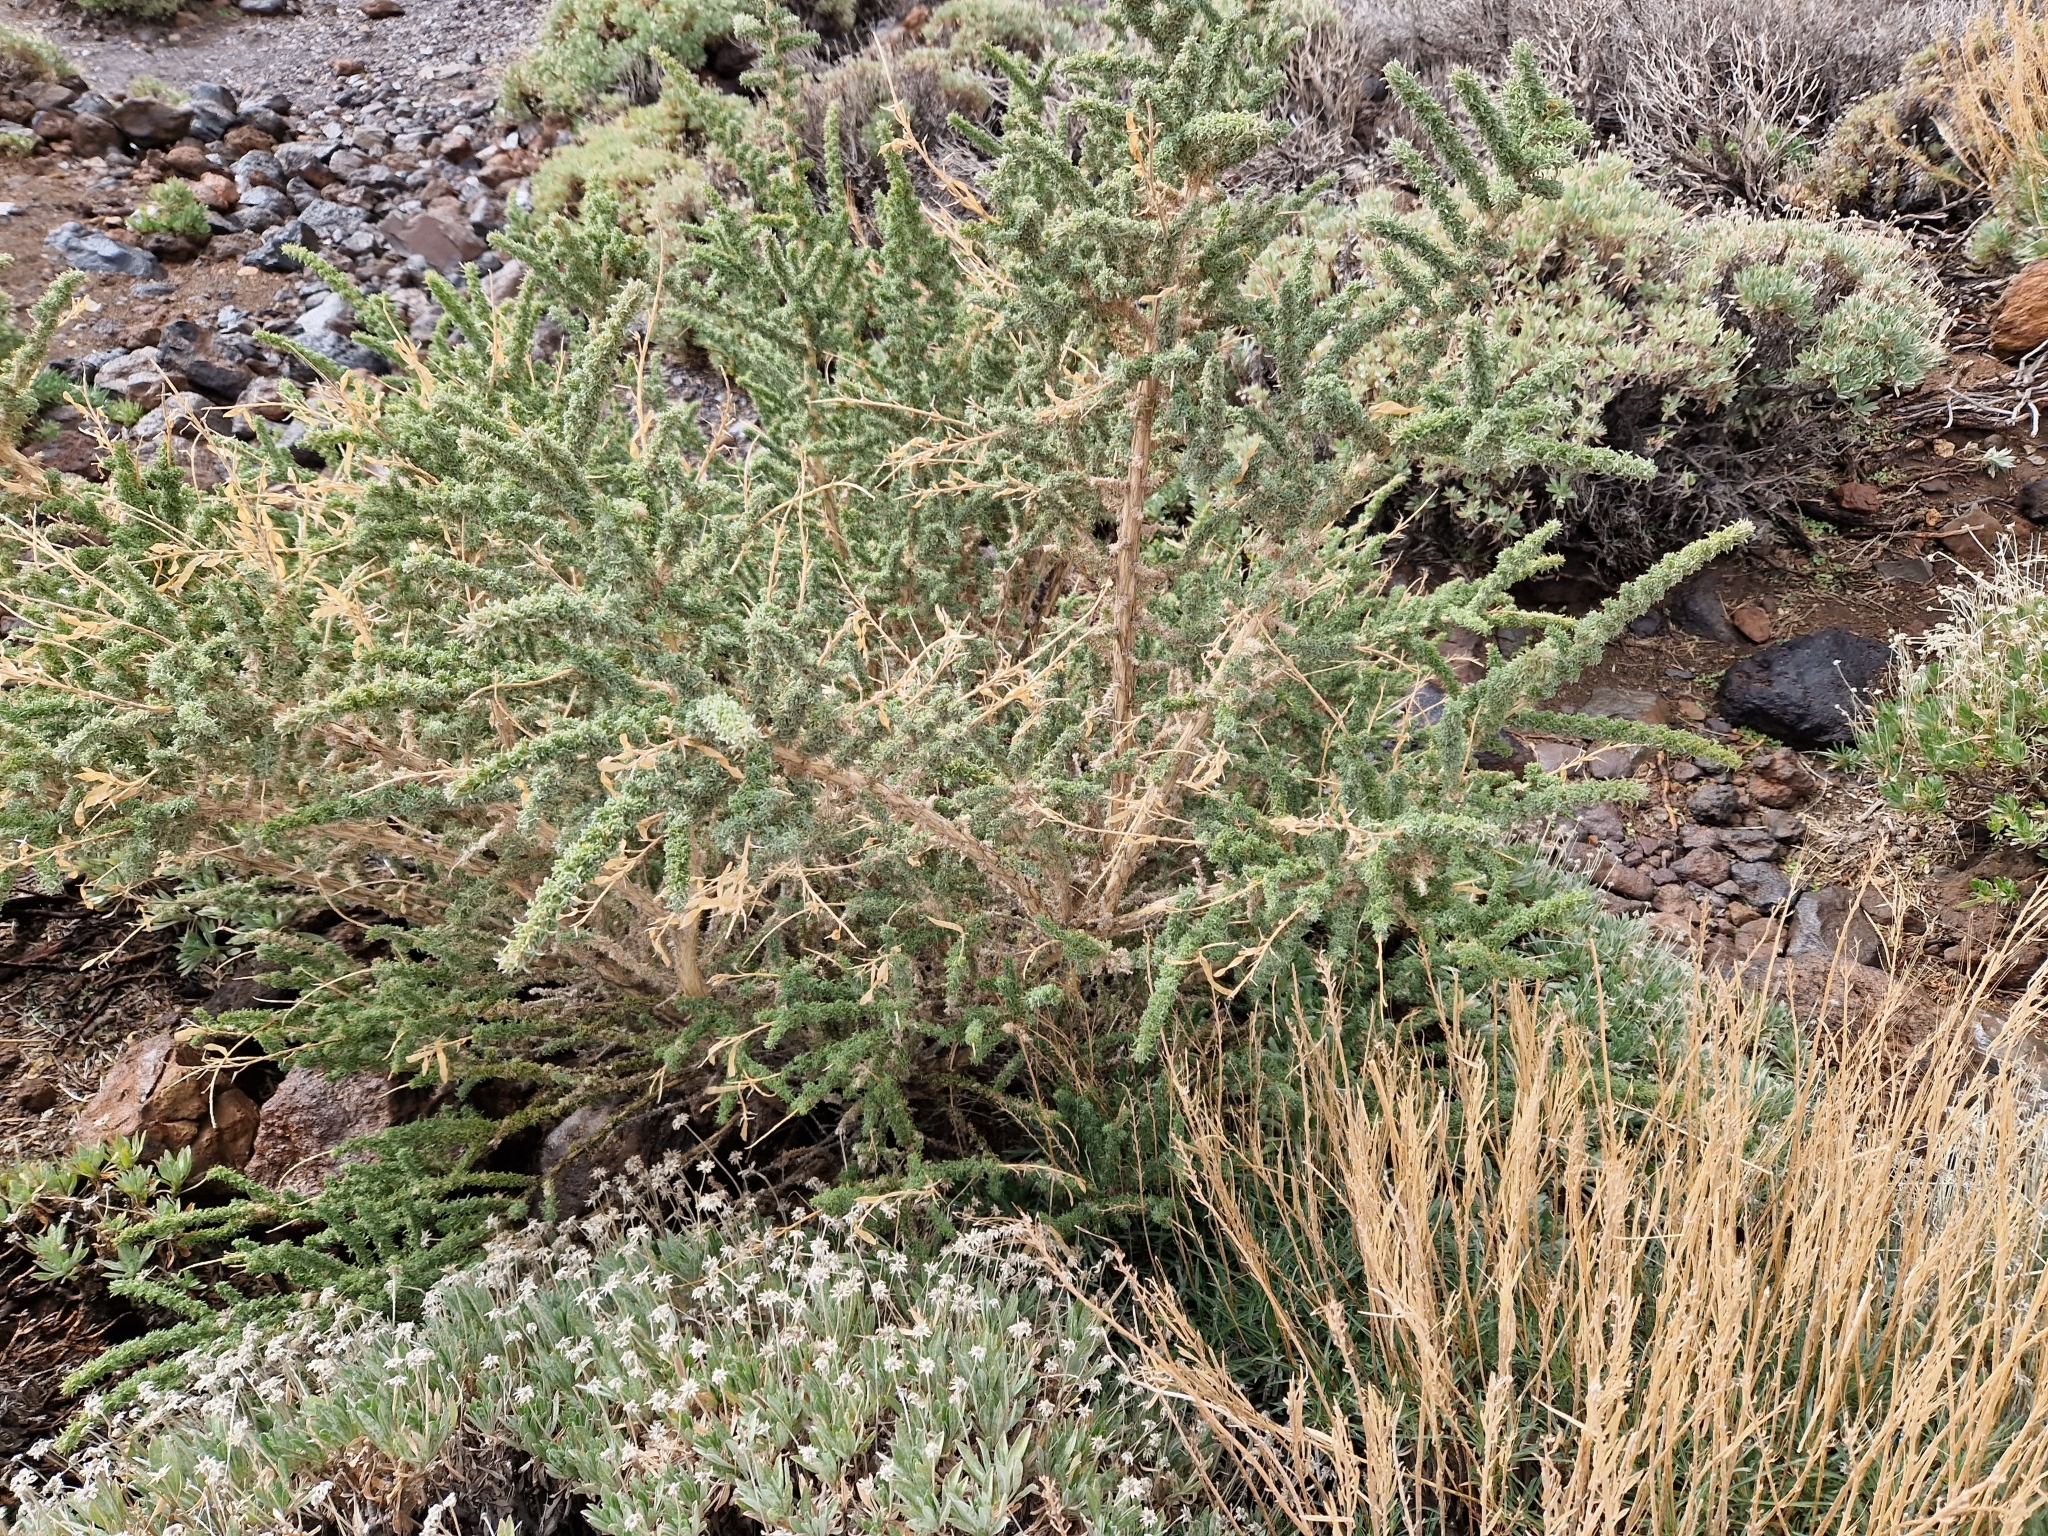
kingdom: Plantae
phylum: Tracheophyta
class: Magnoliopsida
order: Fabales
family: Fabaceae
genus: Adenocarpus
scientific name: Adenocarpus viscosus
